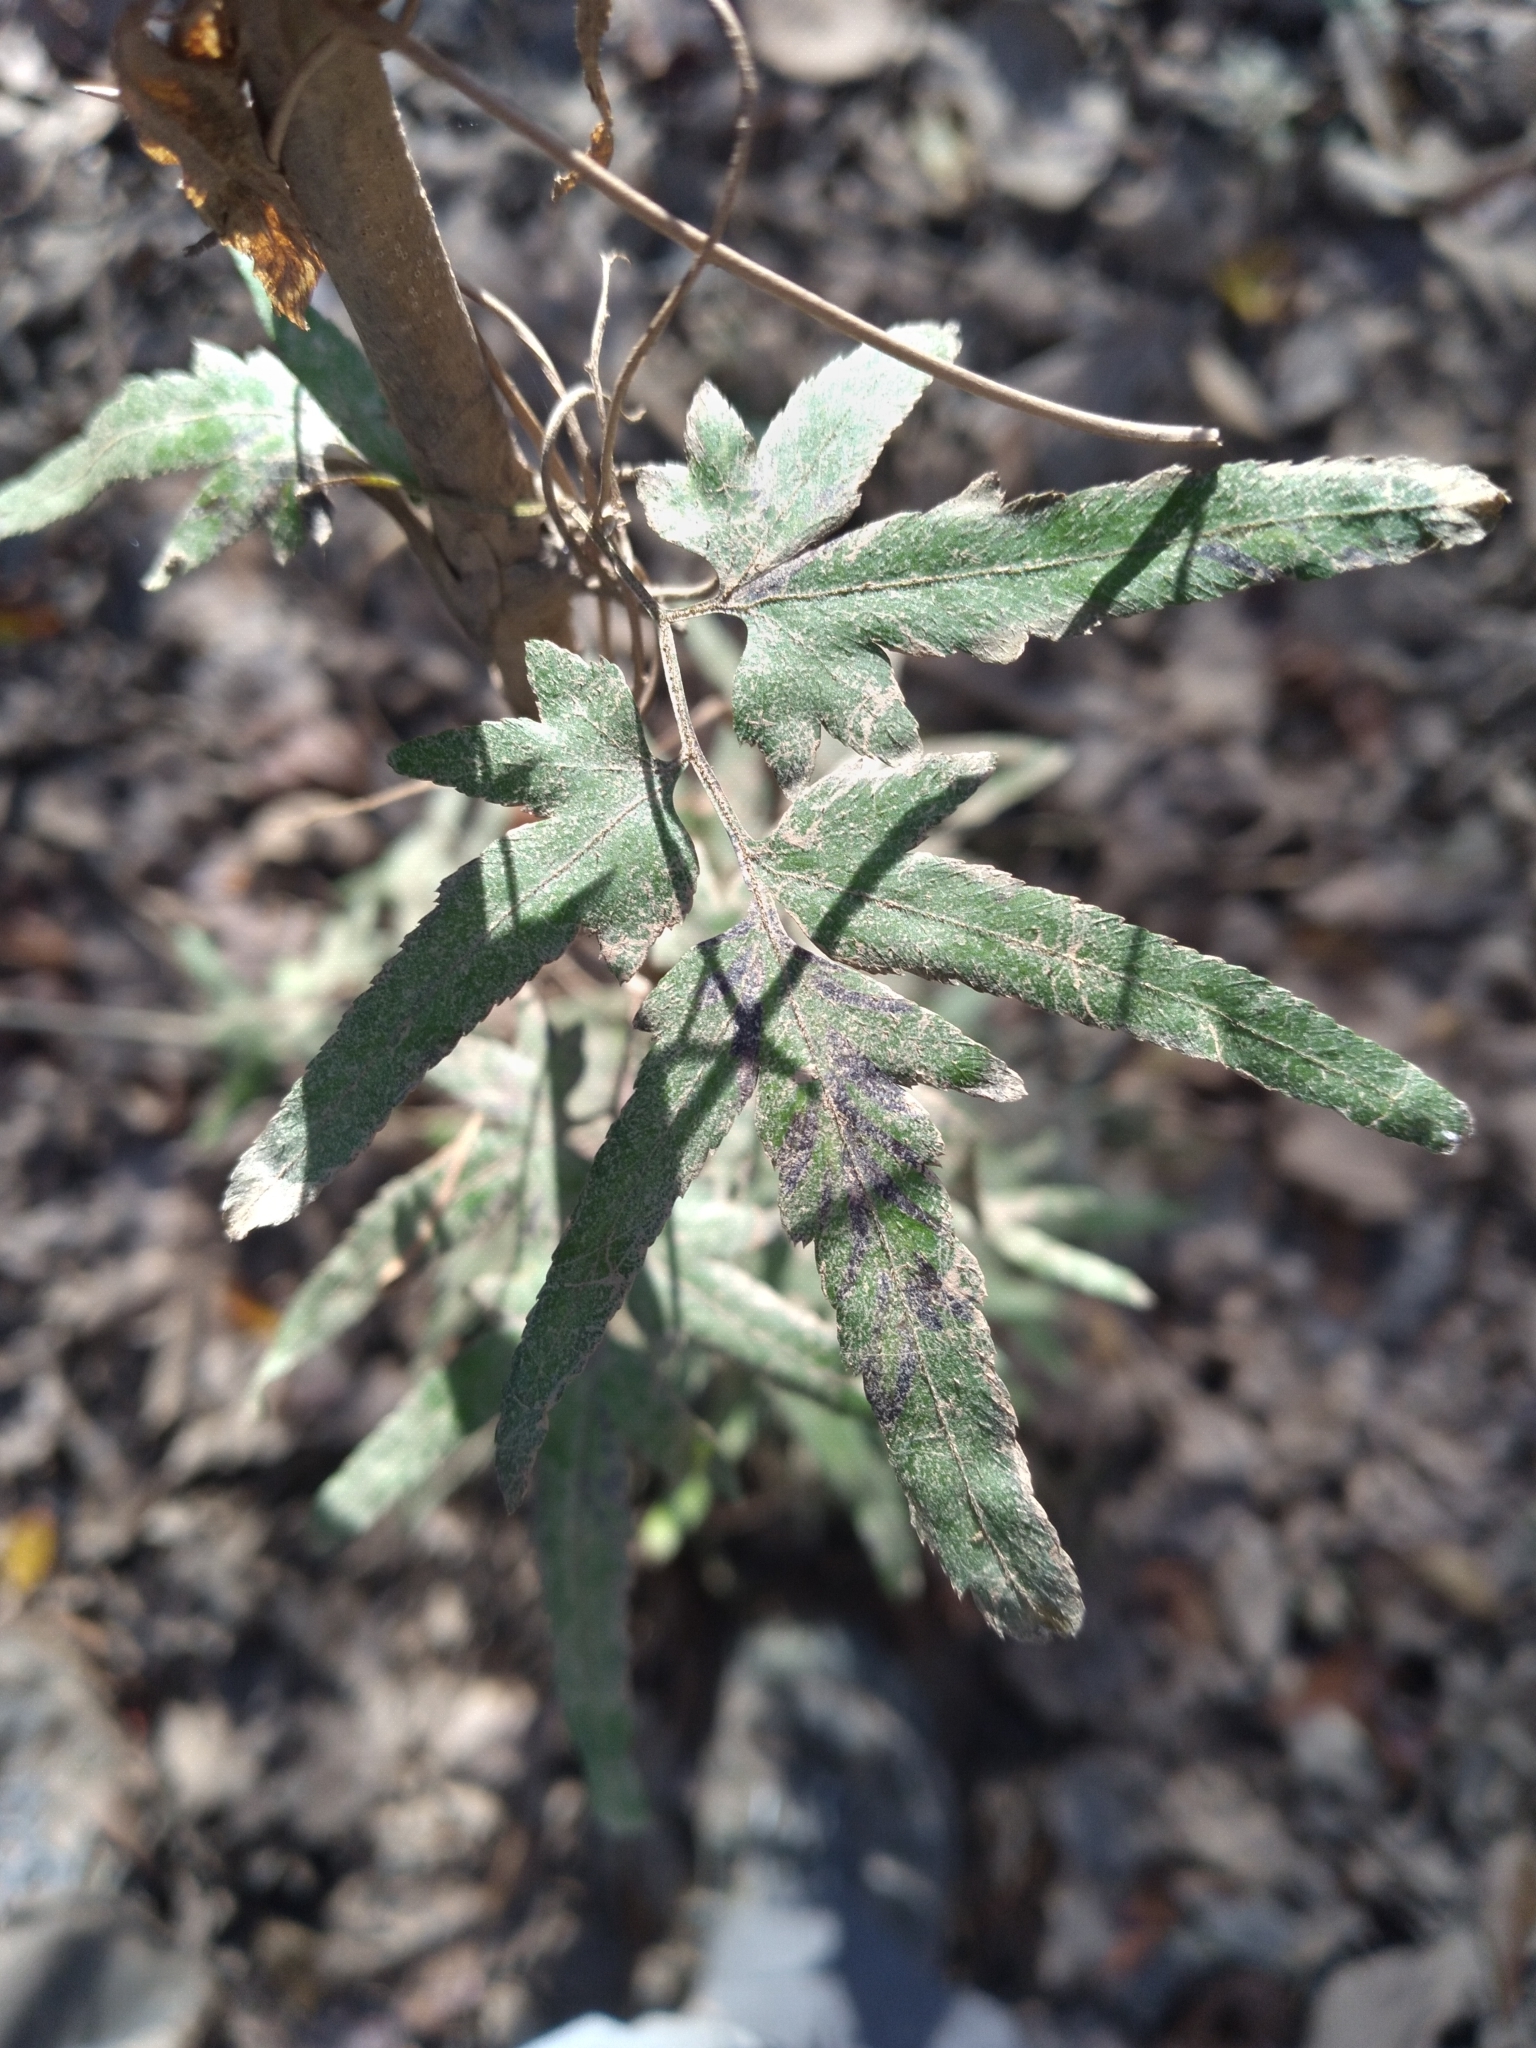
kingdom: Plantae
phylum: Tracheophyta
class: Polypodiopsida
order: Schizaeales
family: Lygodiaceae
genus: Lygodium
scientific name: Lygodium japonicum
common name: Japanese climbing fern
